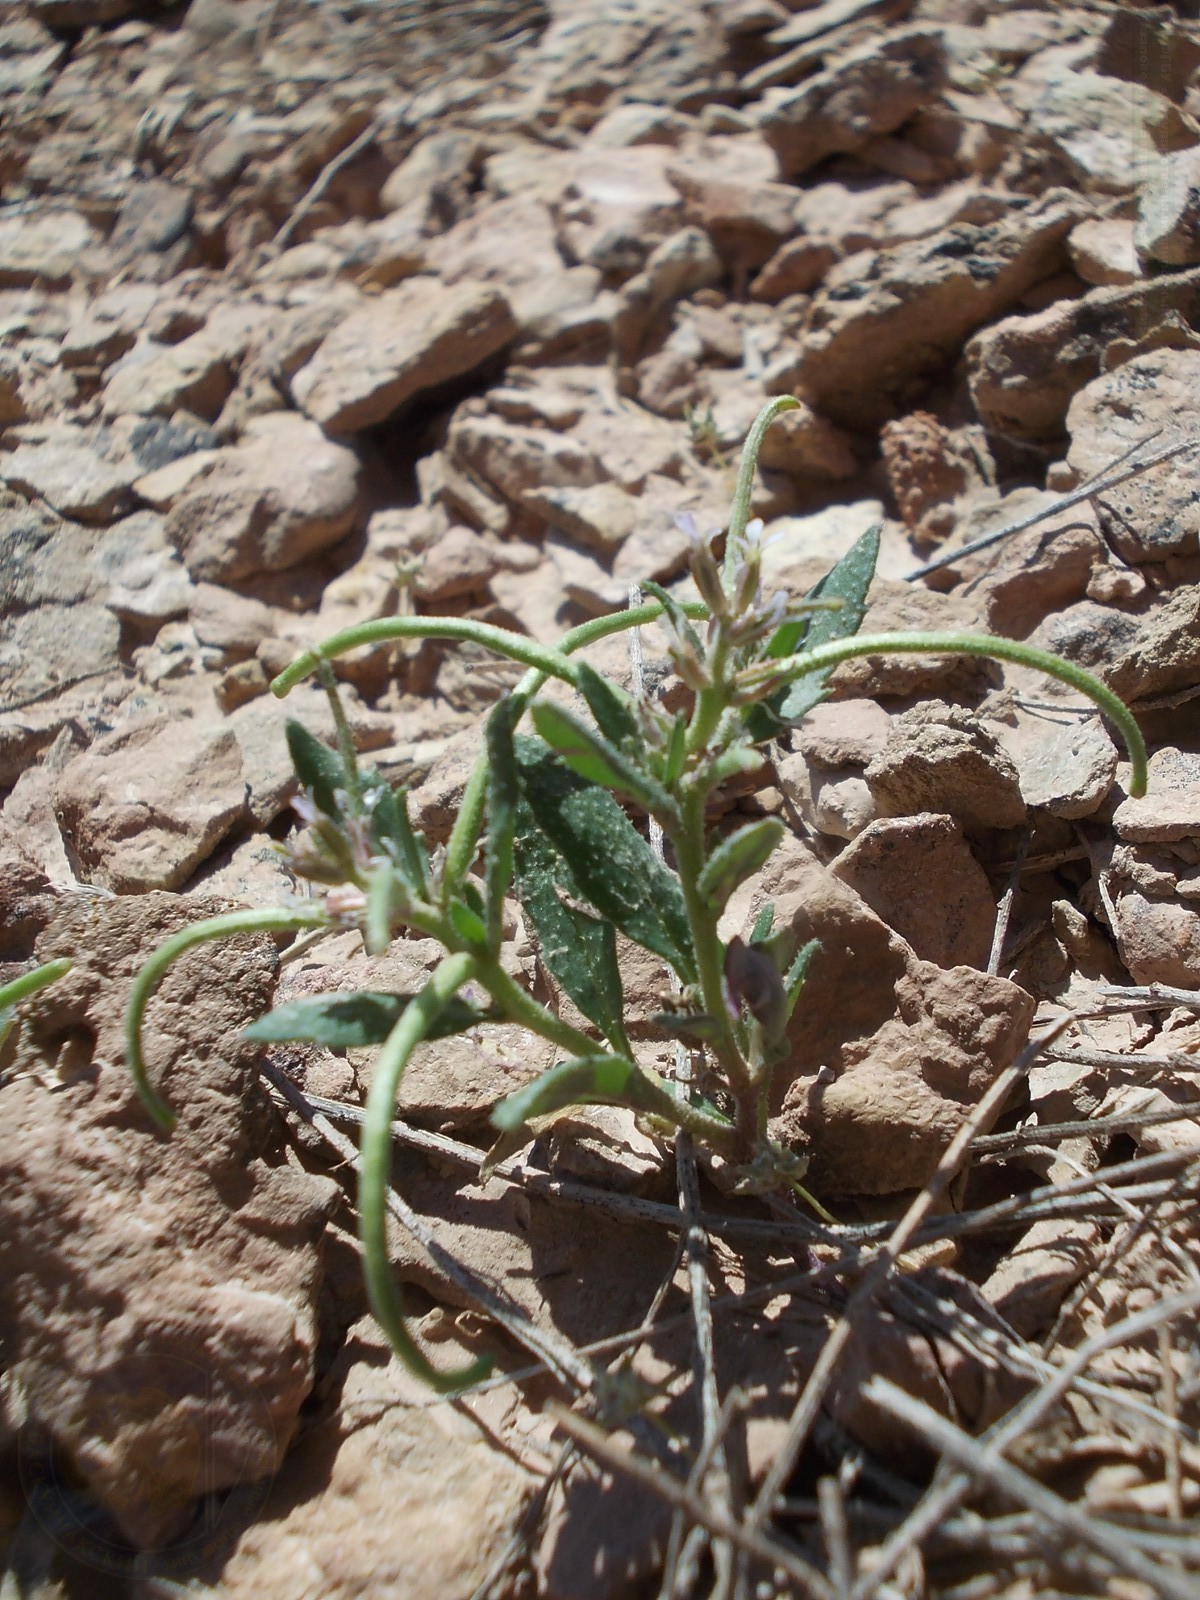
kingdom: Plantae
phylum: Tracheophyta
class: Magnoliopsida
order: Brassicales
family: Brassicaceae
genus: Strigosella
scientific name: Strigosella africana
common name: African mustard
